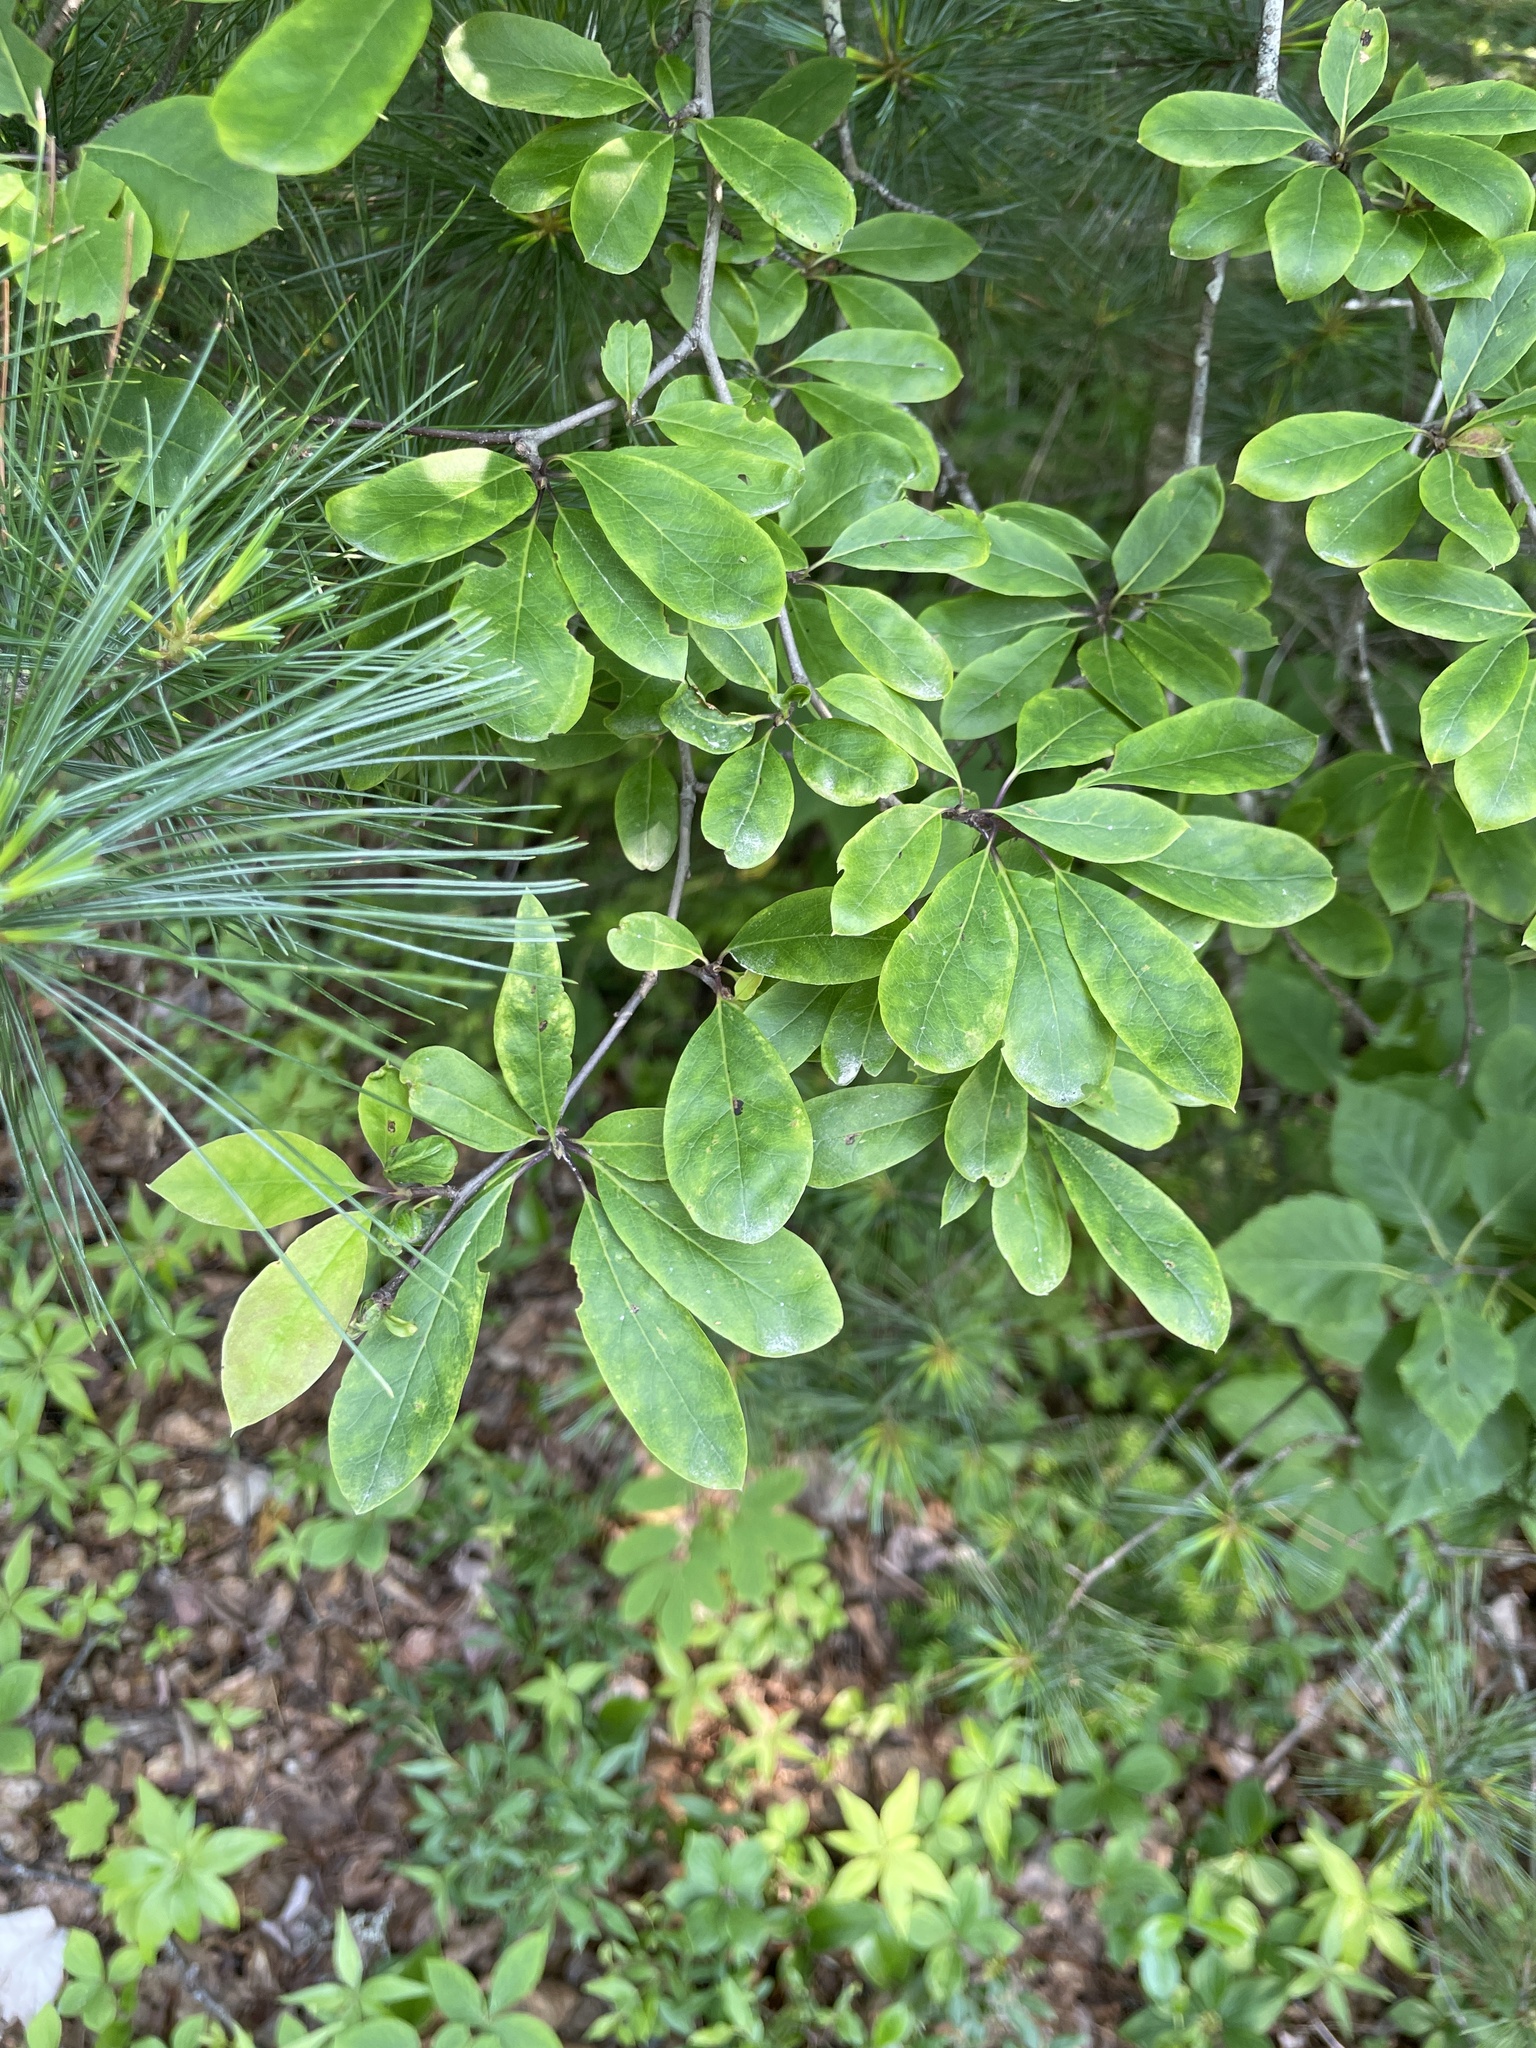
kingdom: Plantae
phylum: Tracheophyta
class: Magnoliopsida
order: Aquifoliales
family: Aquifoliaceae
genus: Ilex
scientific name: Ilex mucronata
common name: Catberry
